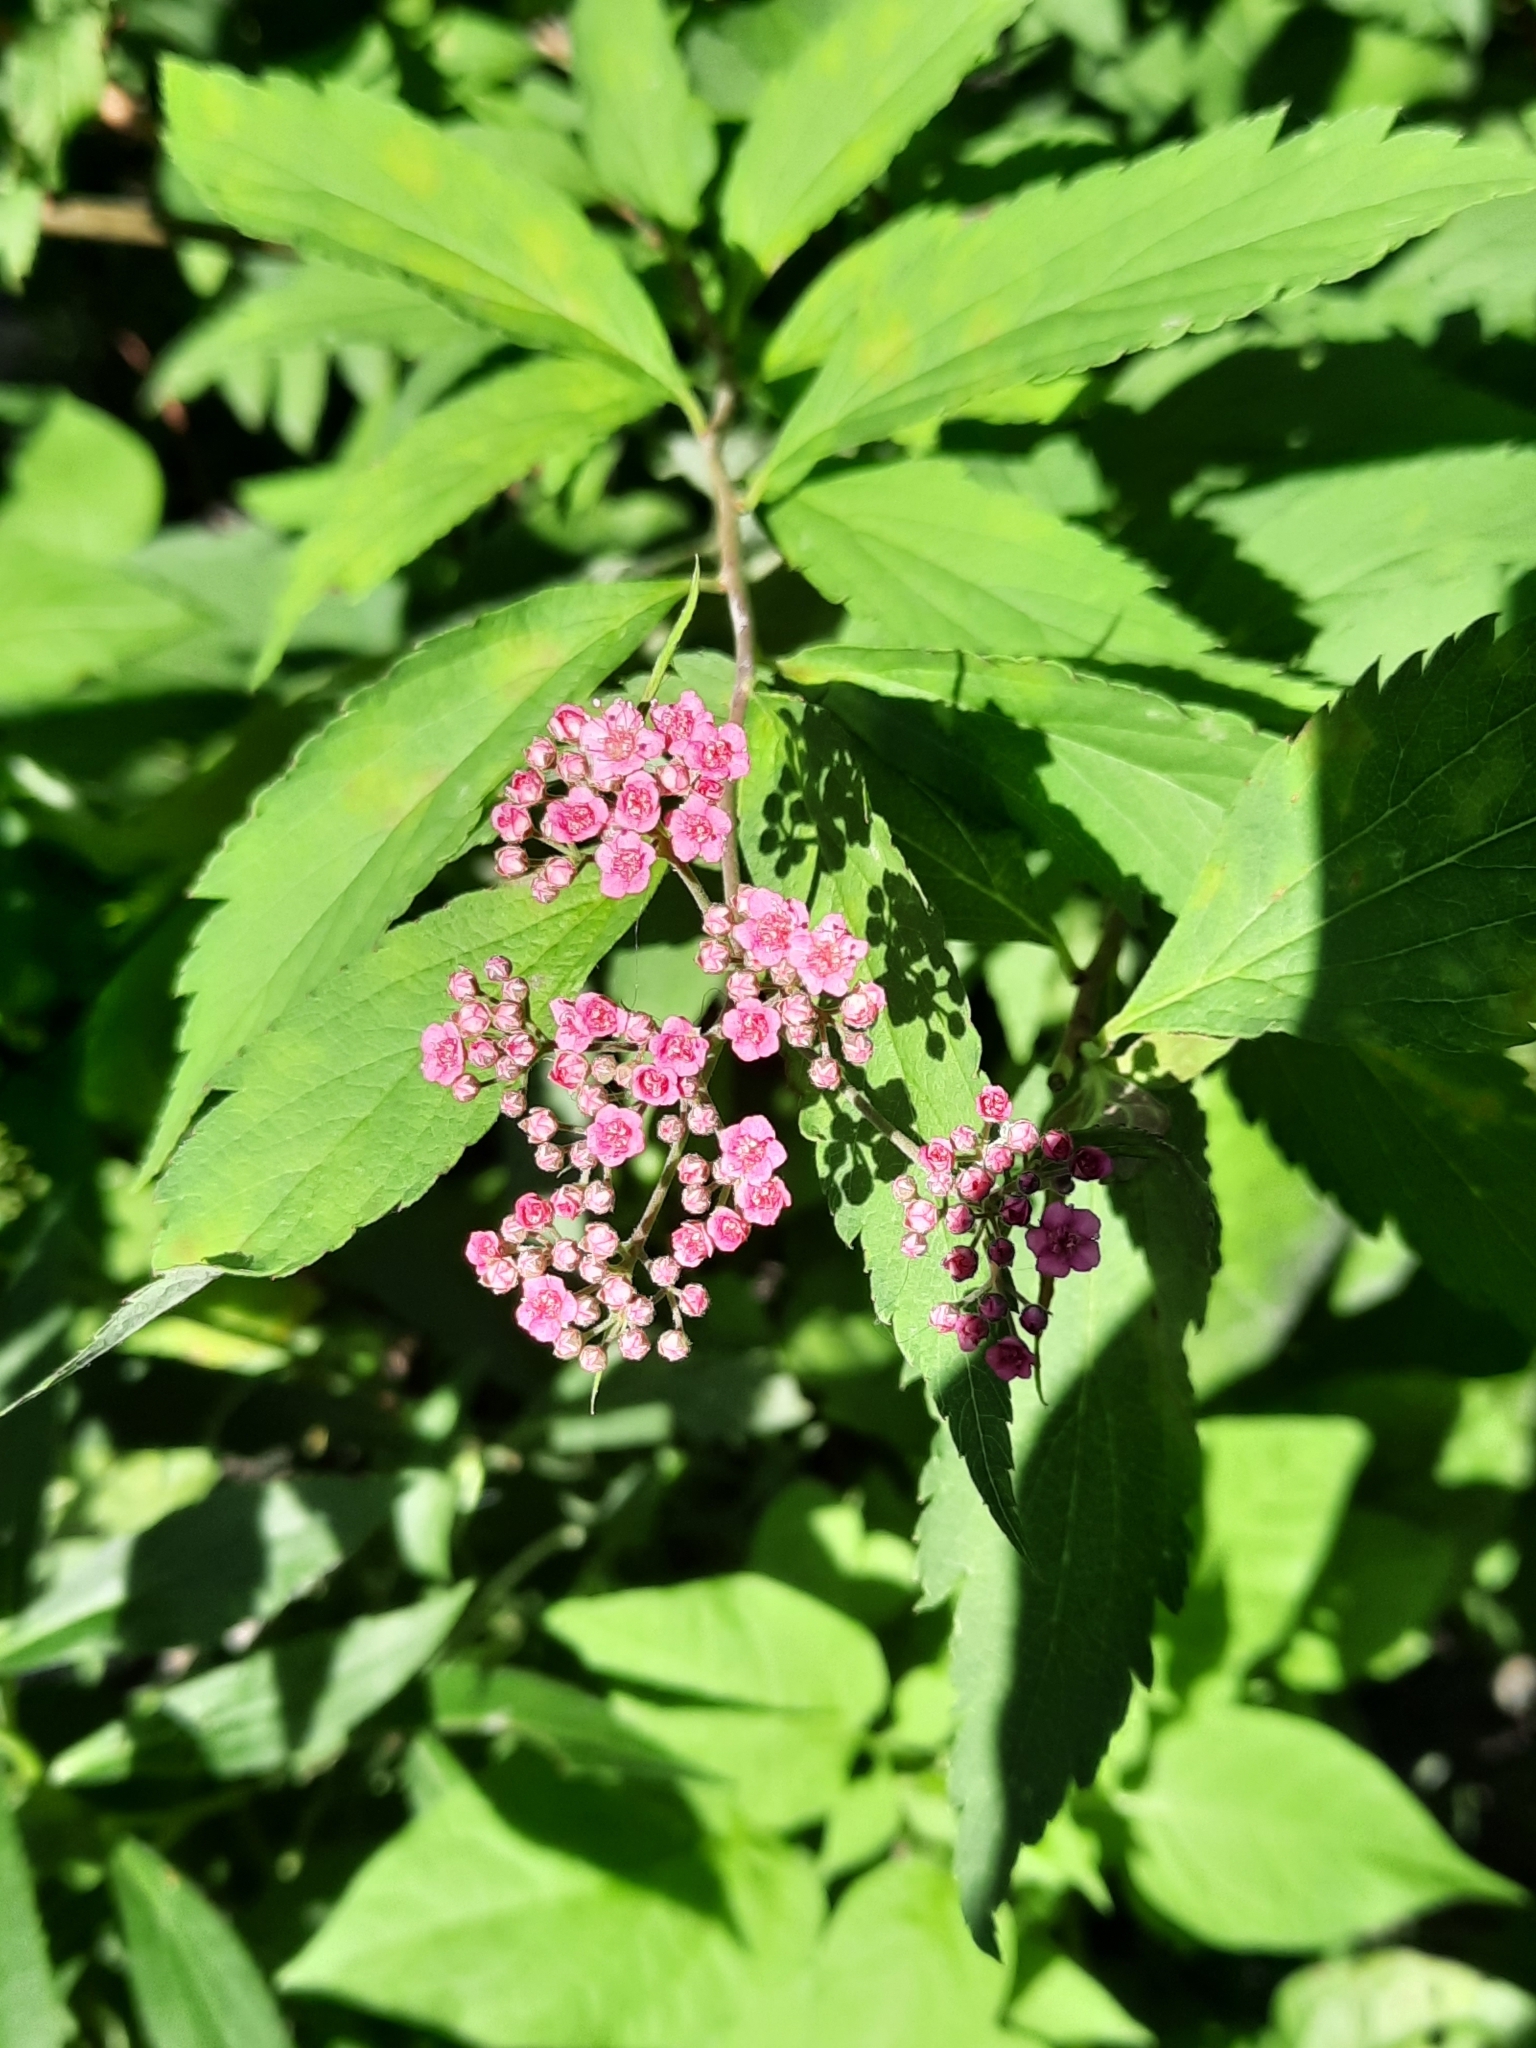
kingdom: Plantae
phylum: Tracheophyta
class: Magnoliopsida
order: Rosales
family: Rosaceae
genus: Spiraea
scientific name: Spiraea japonica
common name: Japanese spiraea
